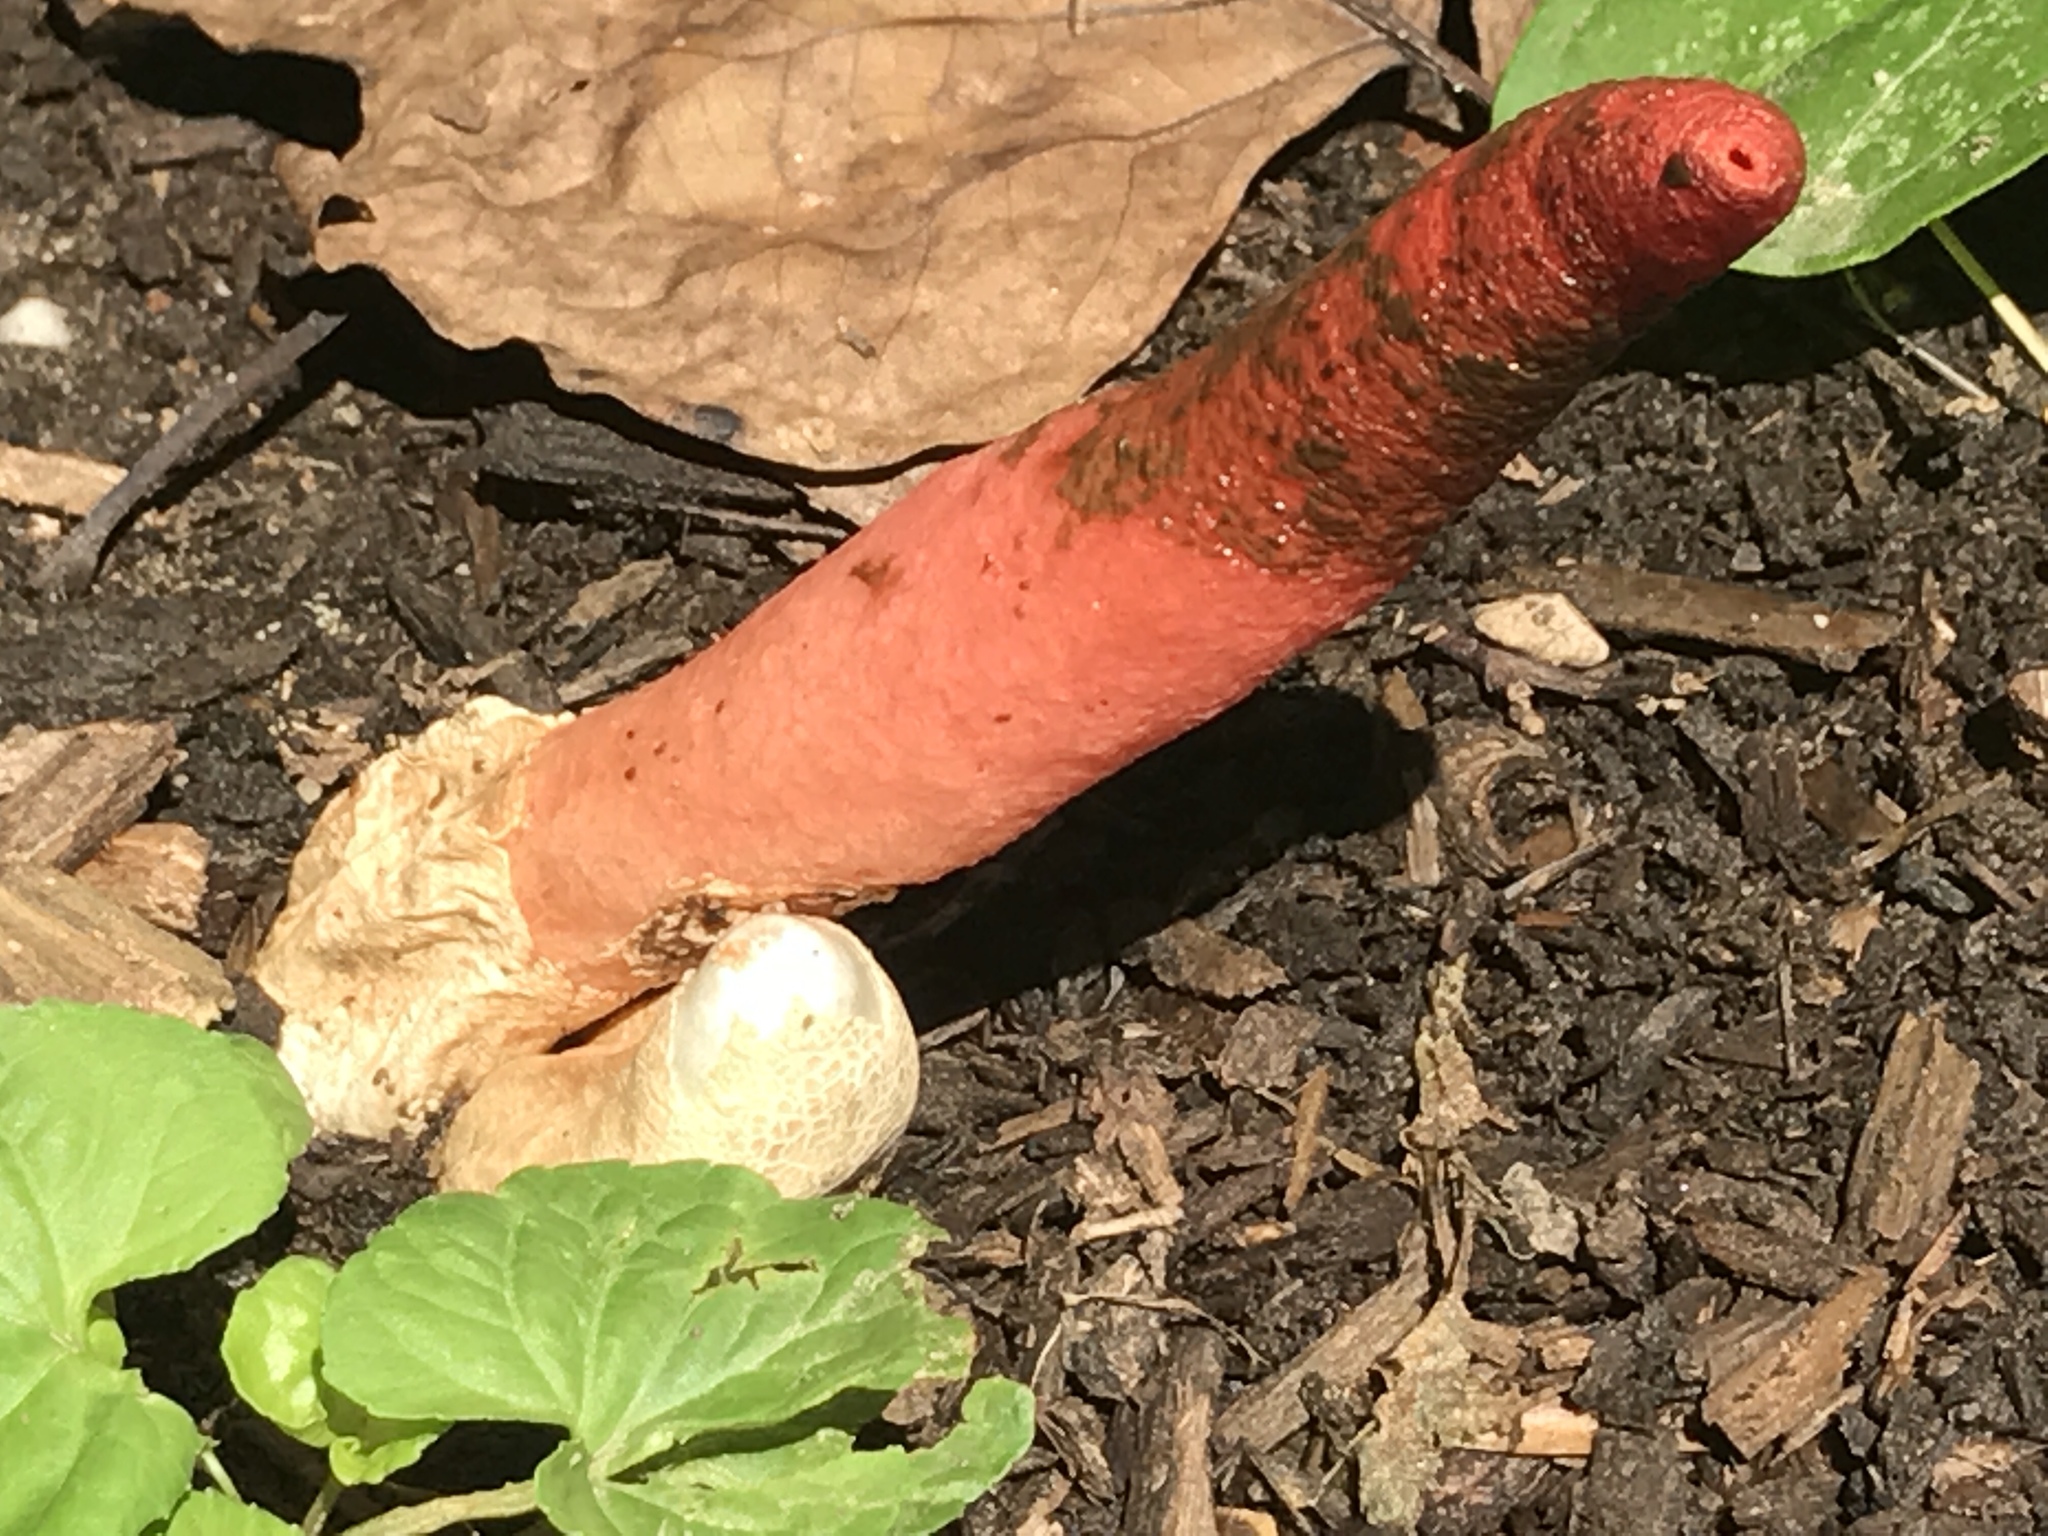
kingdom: Fungi
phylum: Basidiomycota
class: Agaricomycetes
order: Phallales
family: Phallaceae
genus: Mutinus
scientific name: Mutinus elegans
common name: Devil's dipstick
